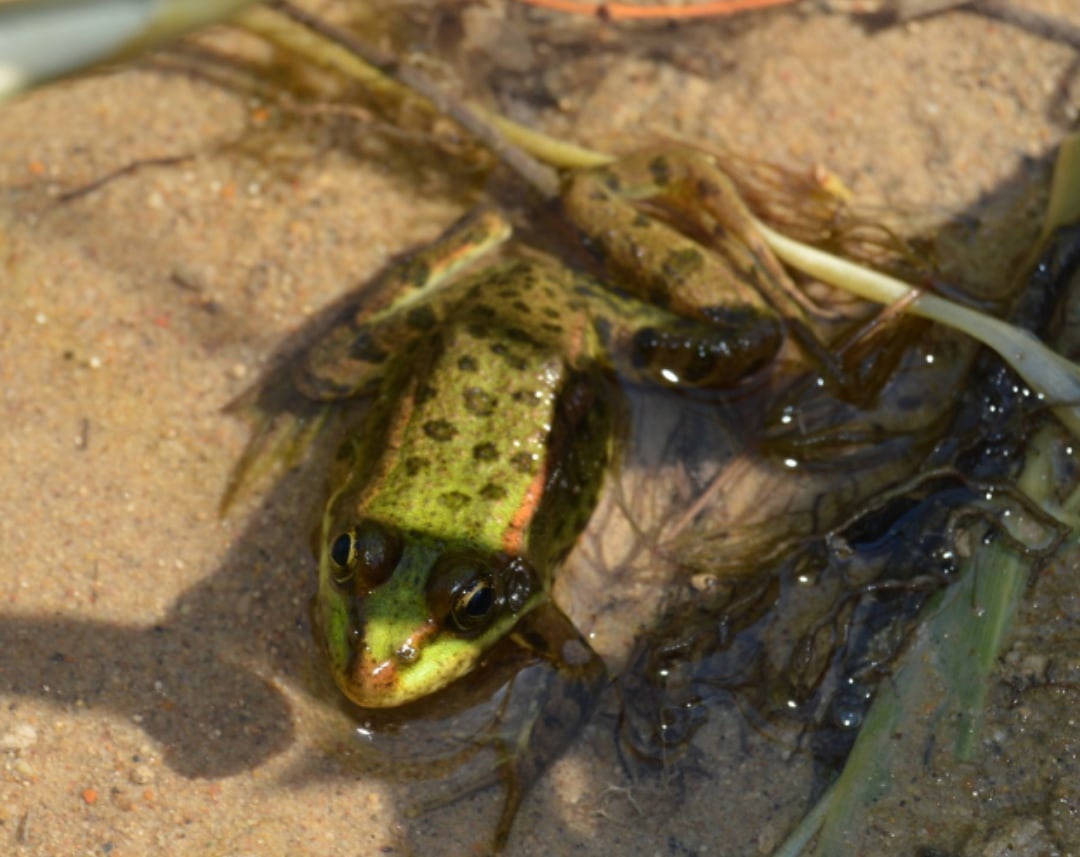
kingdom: Animalia
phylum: Chordata
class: Amphibia
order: Anura
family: Ranidae
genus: Pelophylax
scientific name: Pelophylax ridibundus
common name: Marsh frog
